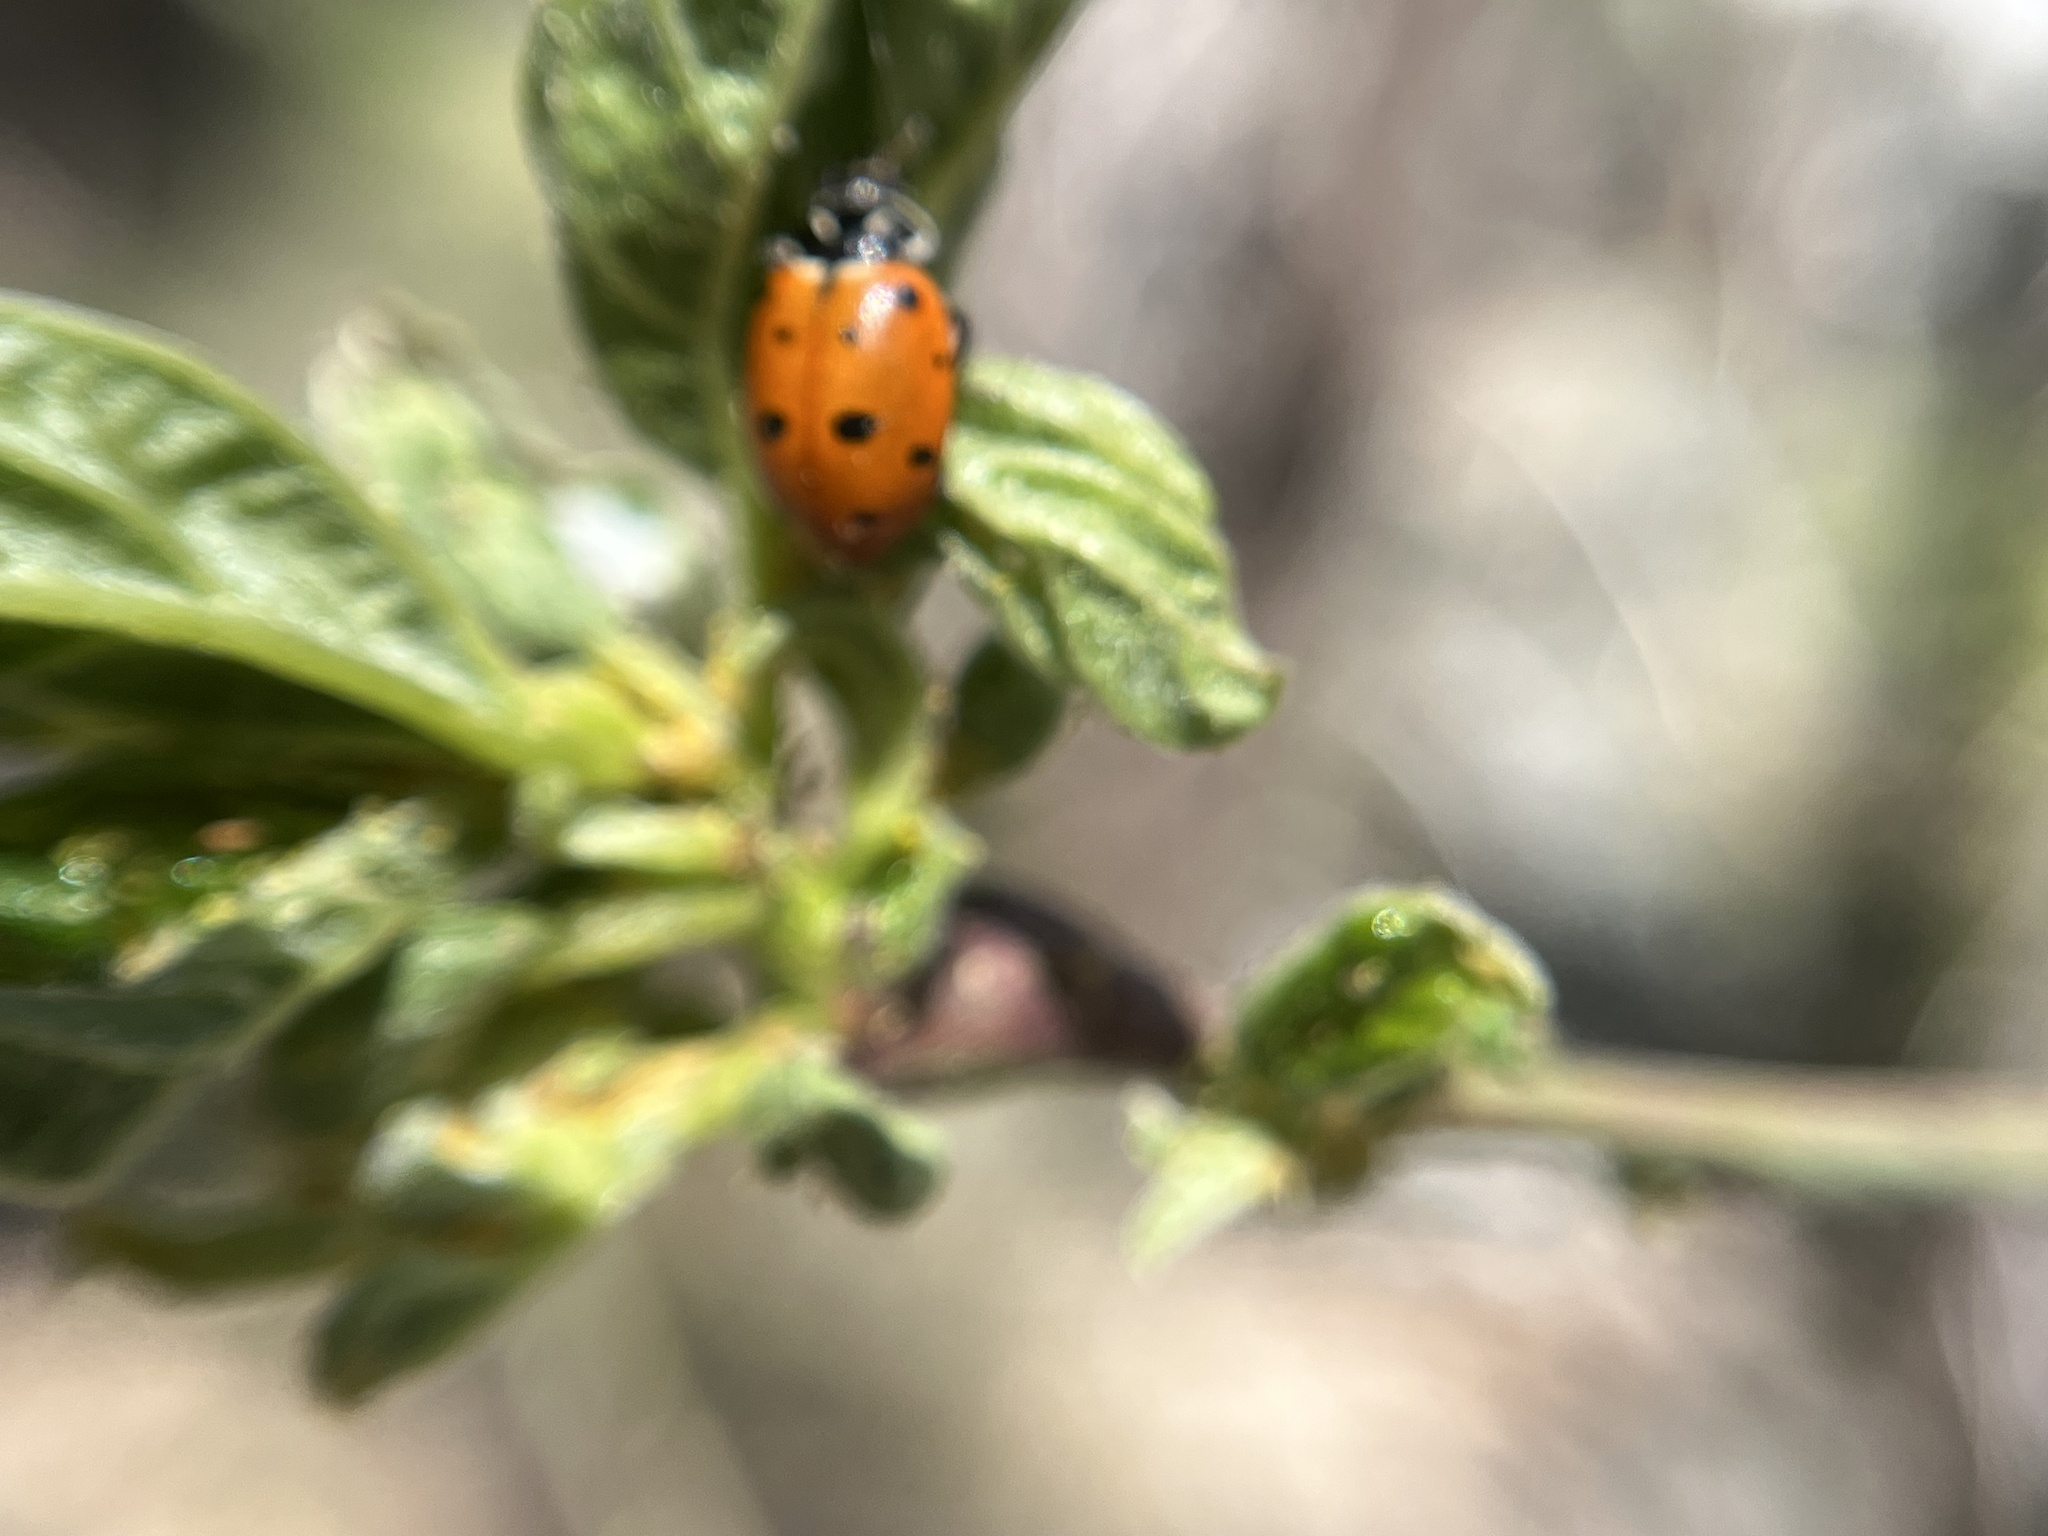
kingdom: Animalia
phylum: Arthropoda
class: Insecta
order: Coleoptera
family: Coccinellidae
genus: Hippodamia
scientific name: Hippodamia convergens
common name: Convergent lady beetle
